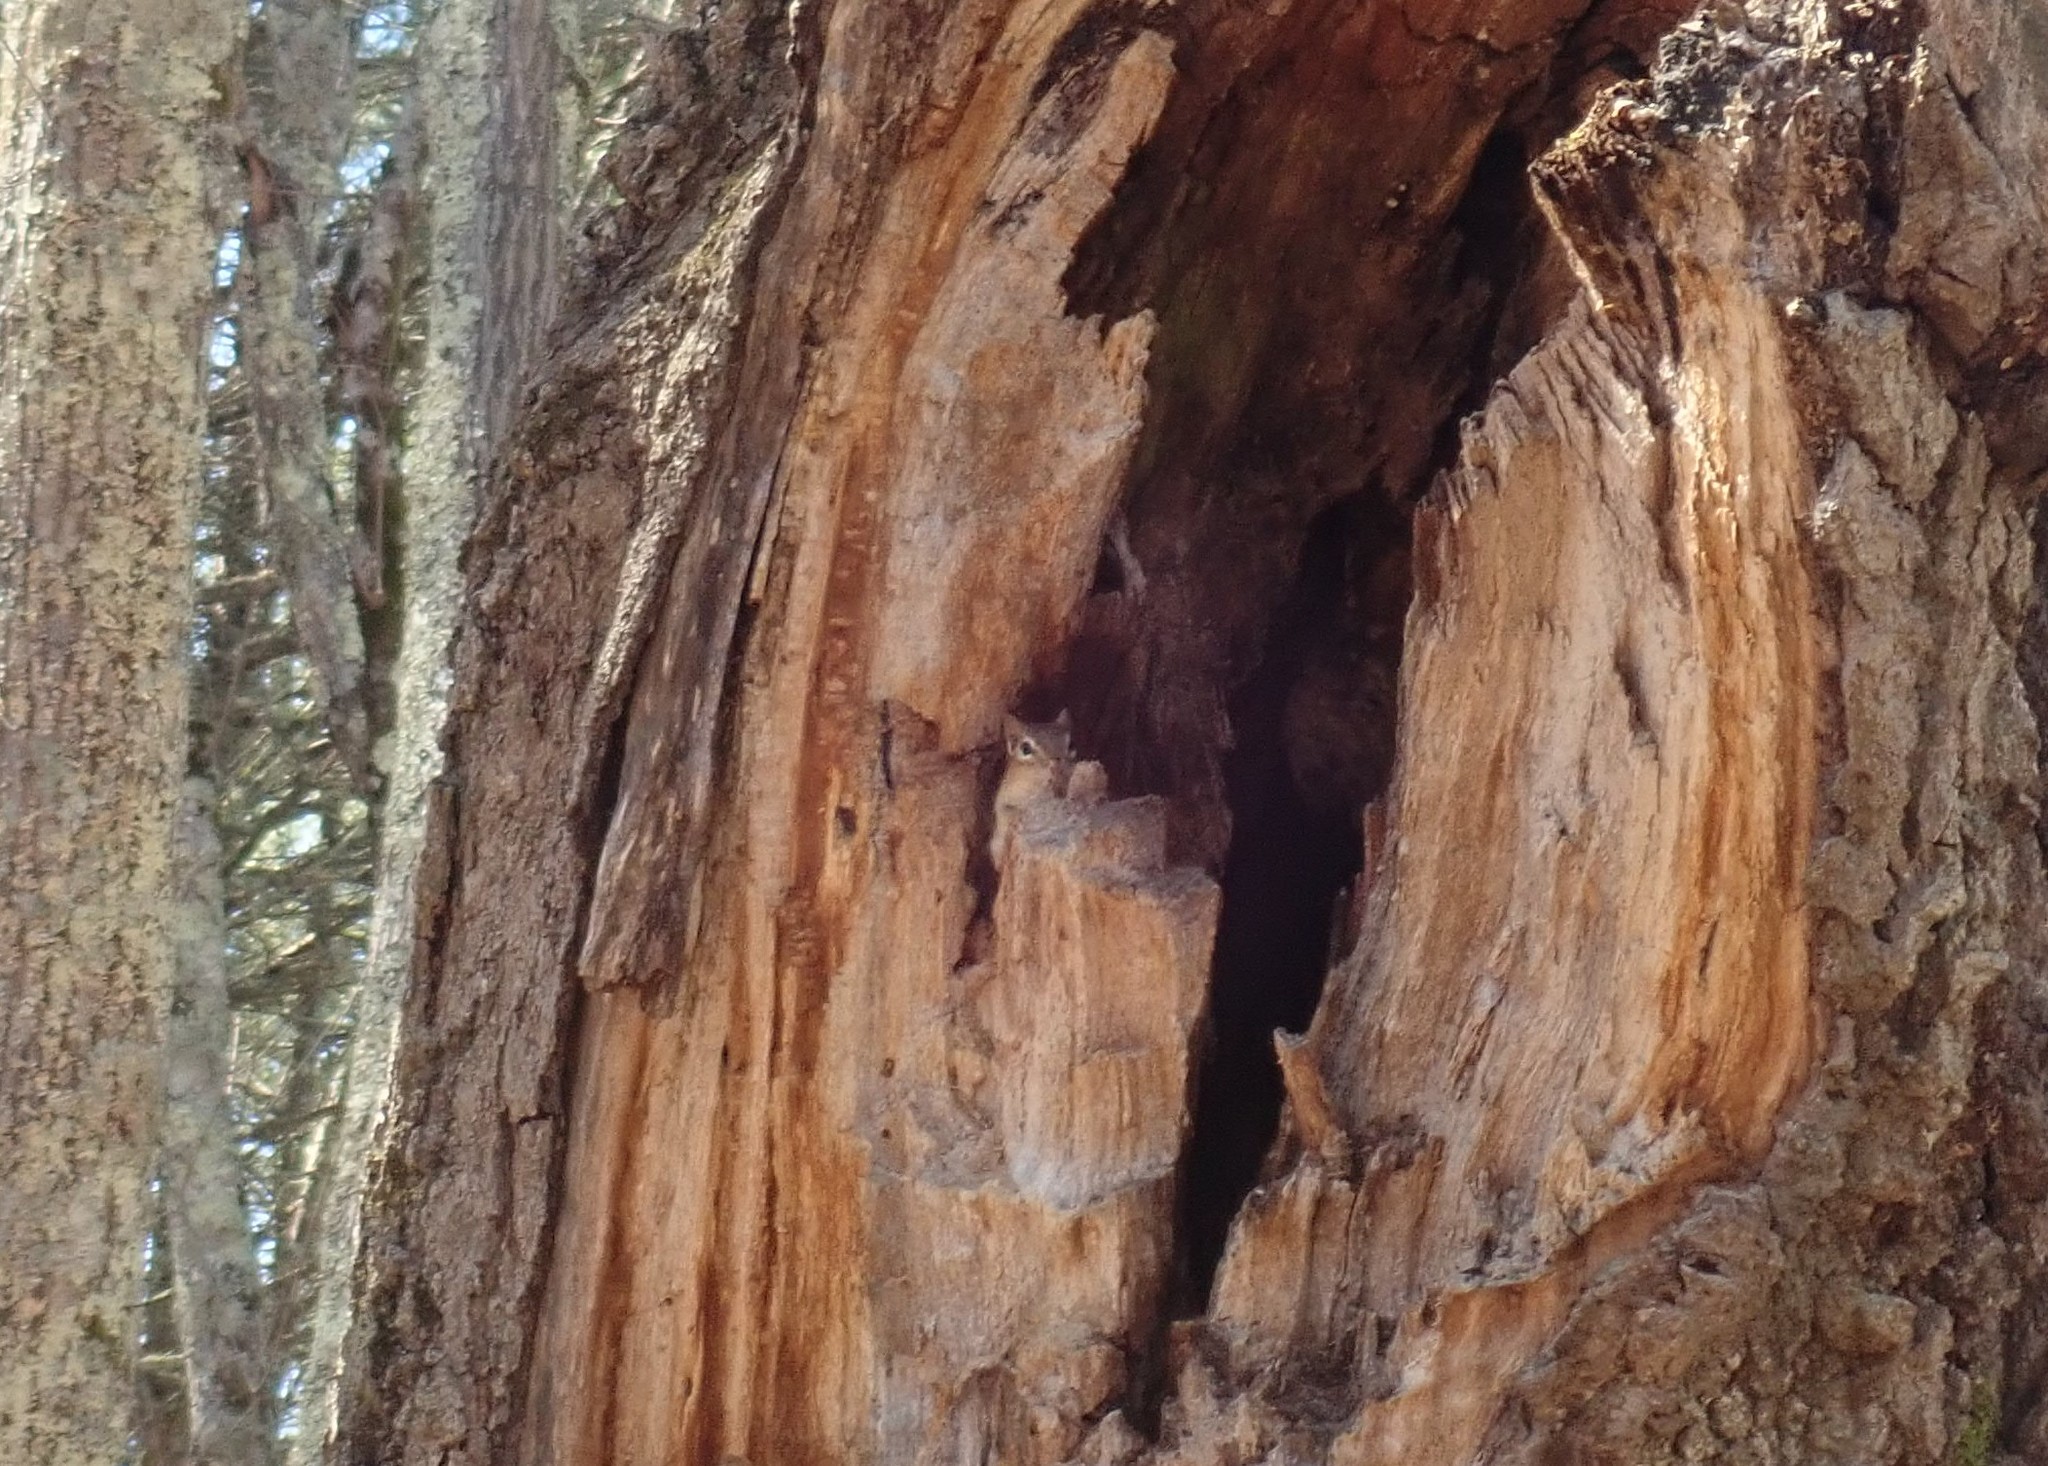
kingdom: Animalia
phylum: Chordata
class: Mammalia
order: Rodentia
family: Sciuridae
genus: Tamias
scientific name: Tamias striatus
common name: Eastern chipmunk
